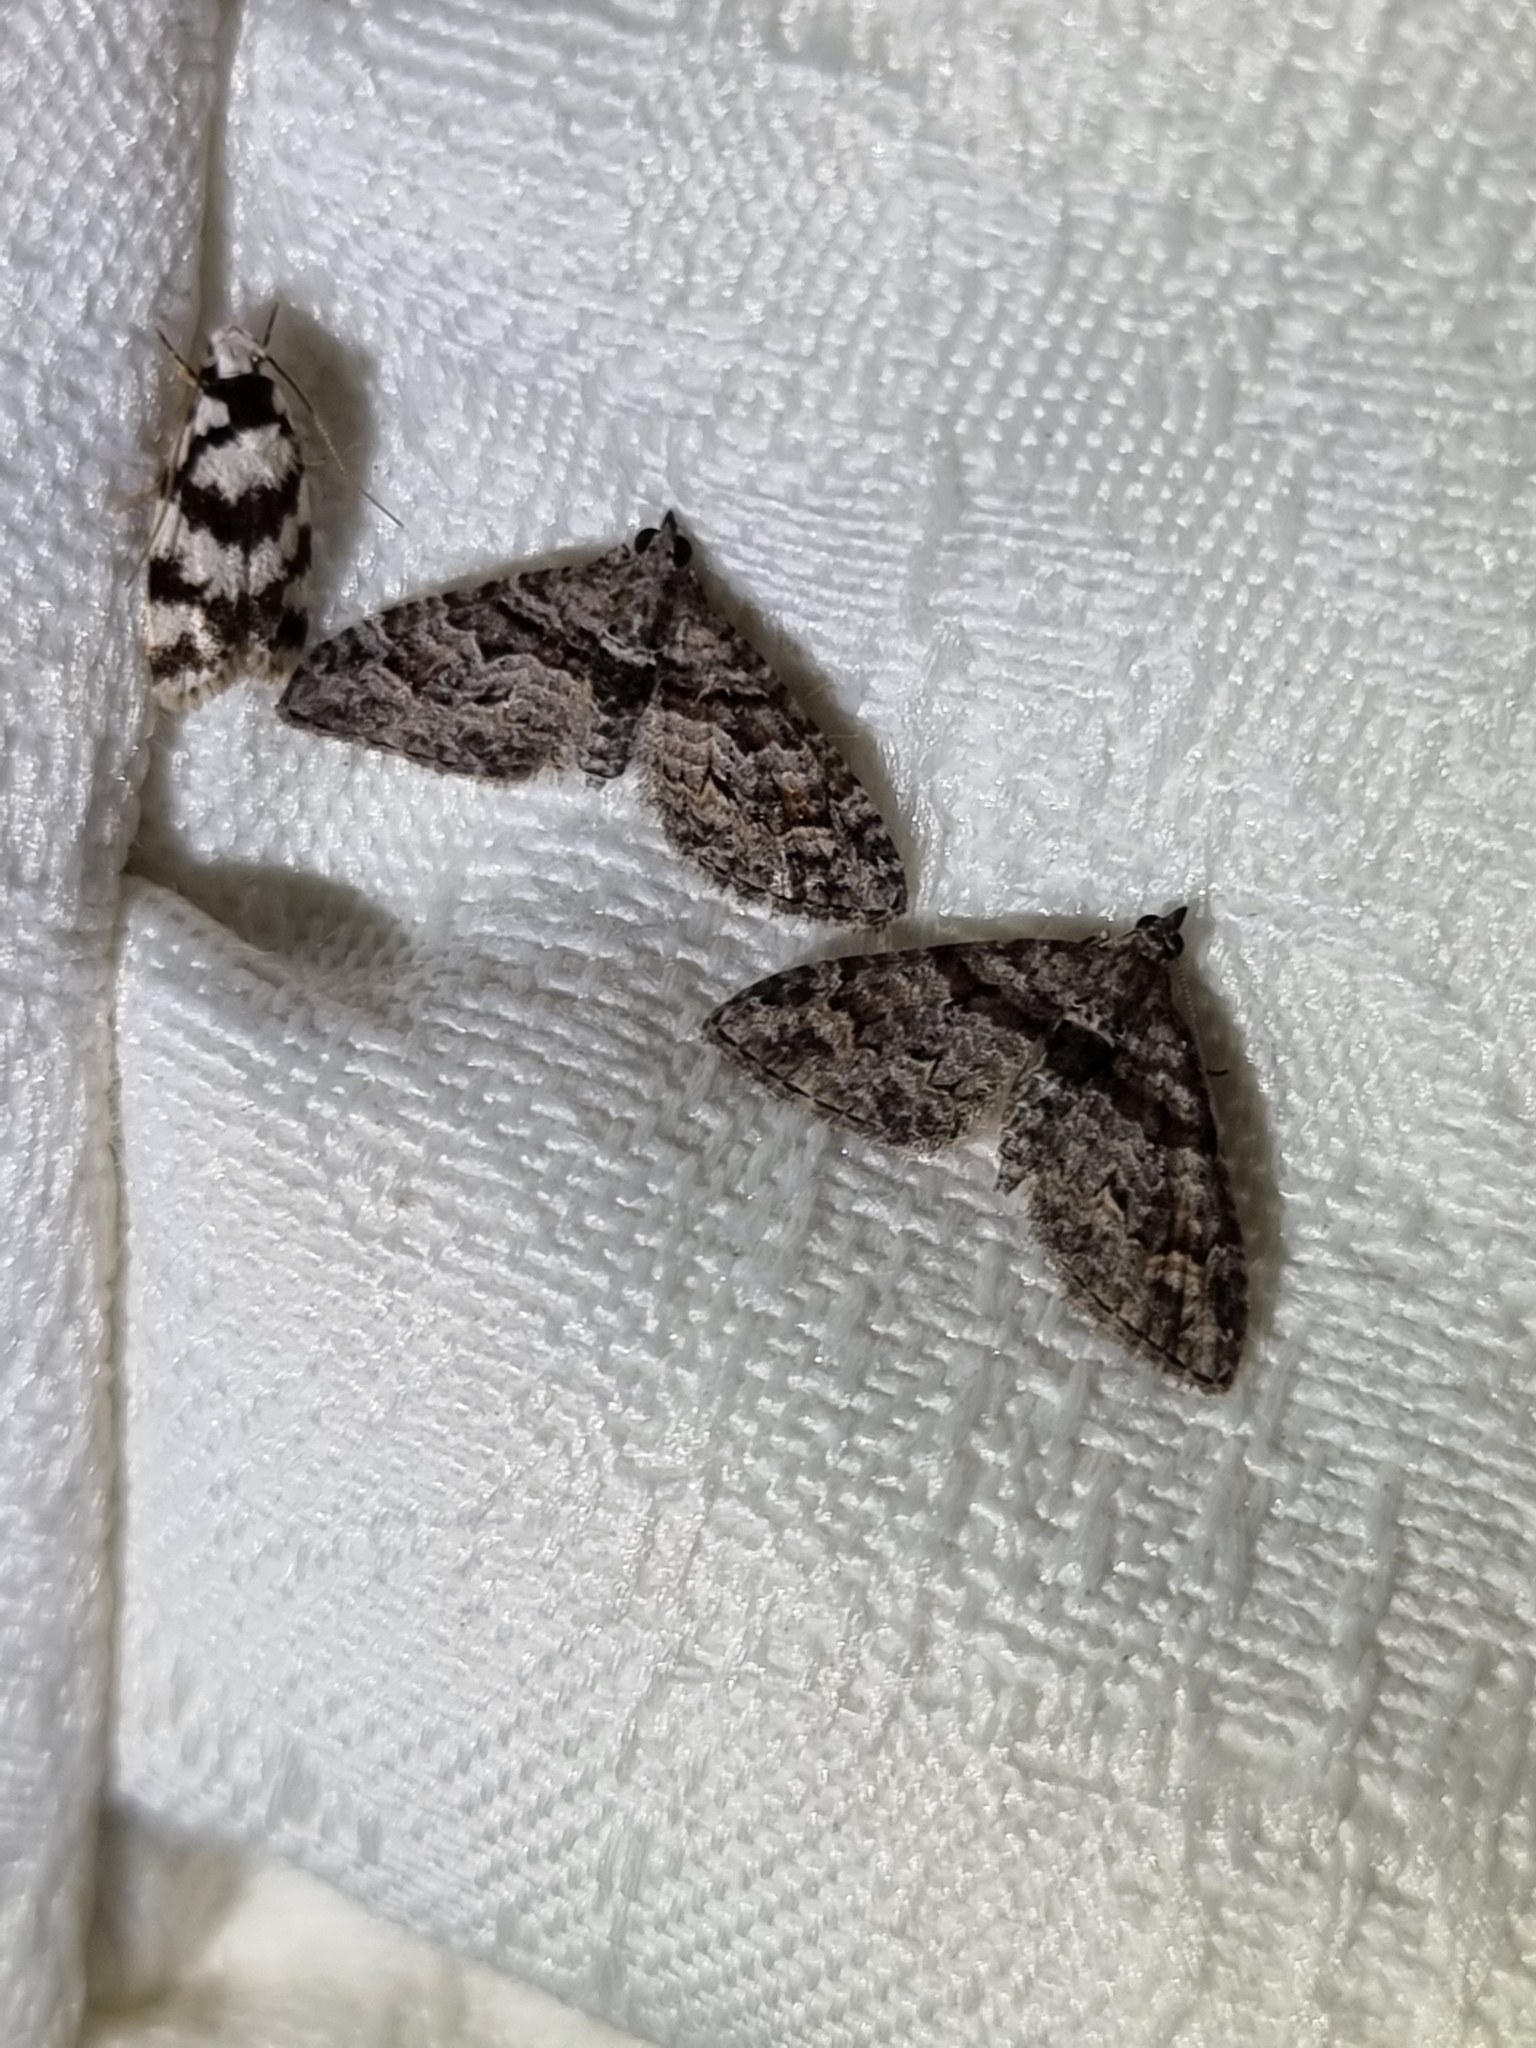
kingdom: Animalia
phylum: Arthropoda
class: Insecta
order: Lepidoptera
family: Geometridae
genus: Phrissogonus
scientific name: Phrissogonus laticostata
